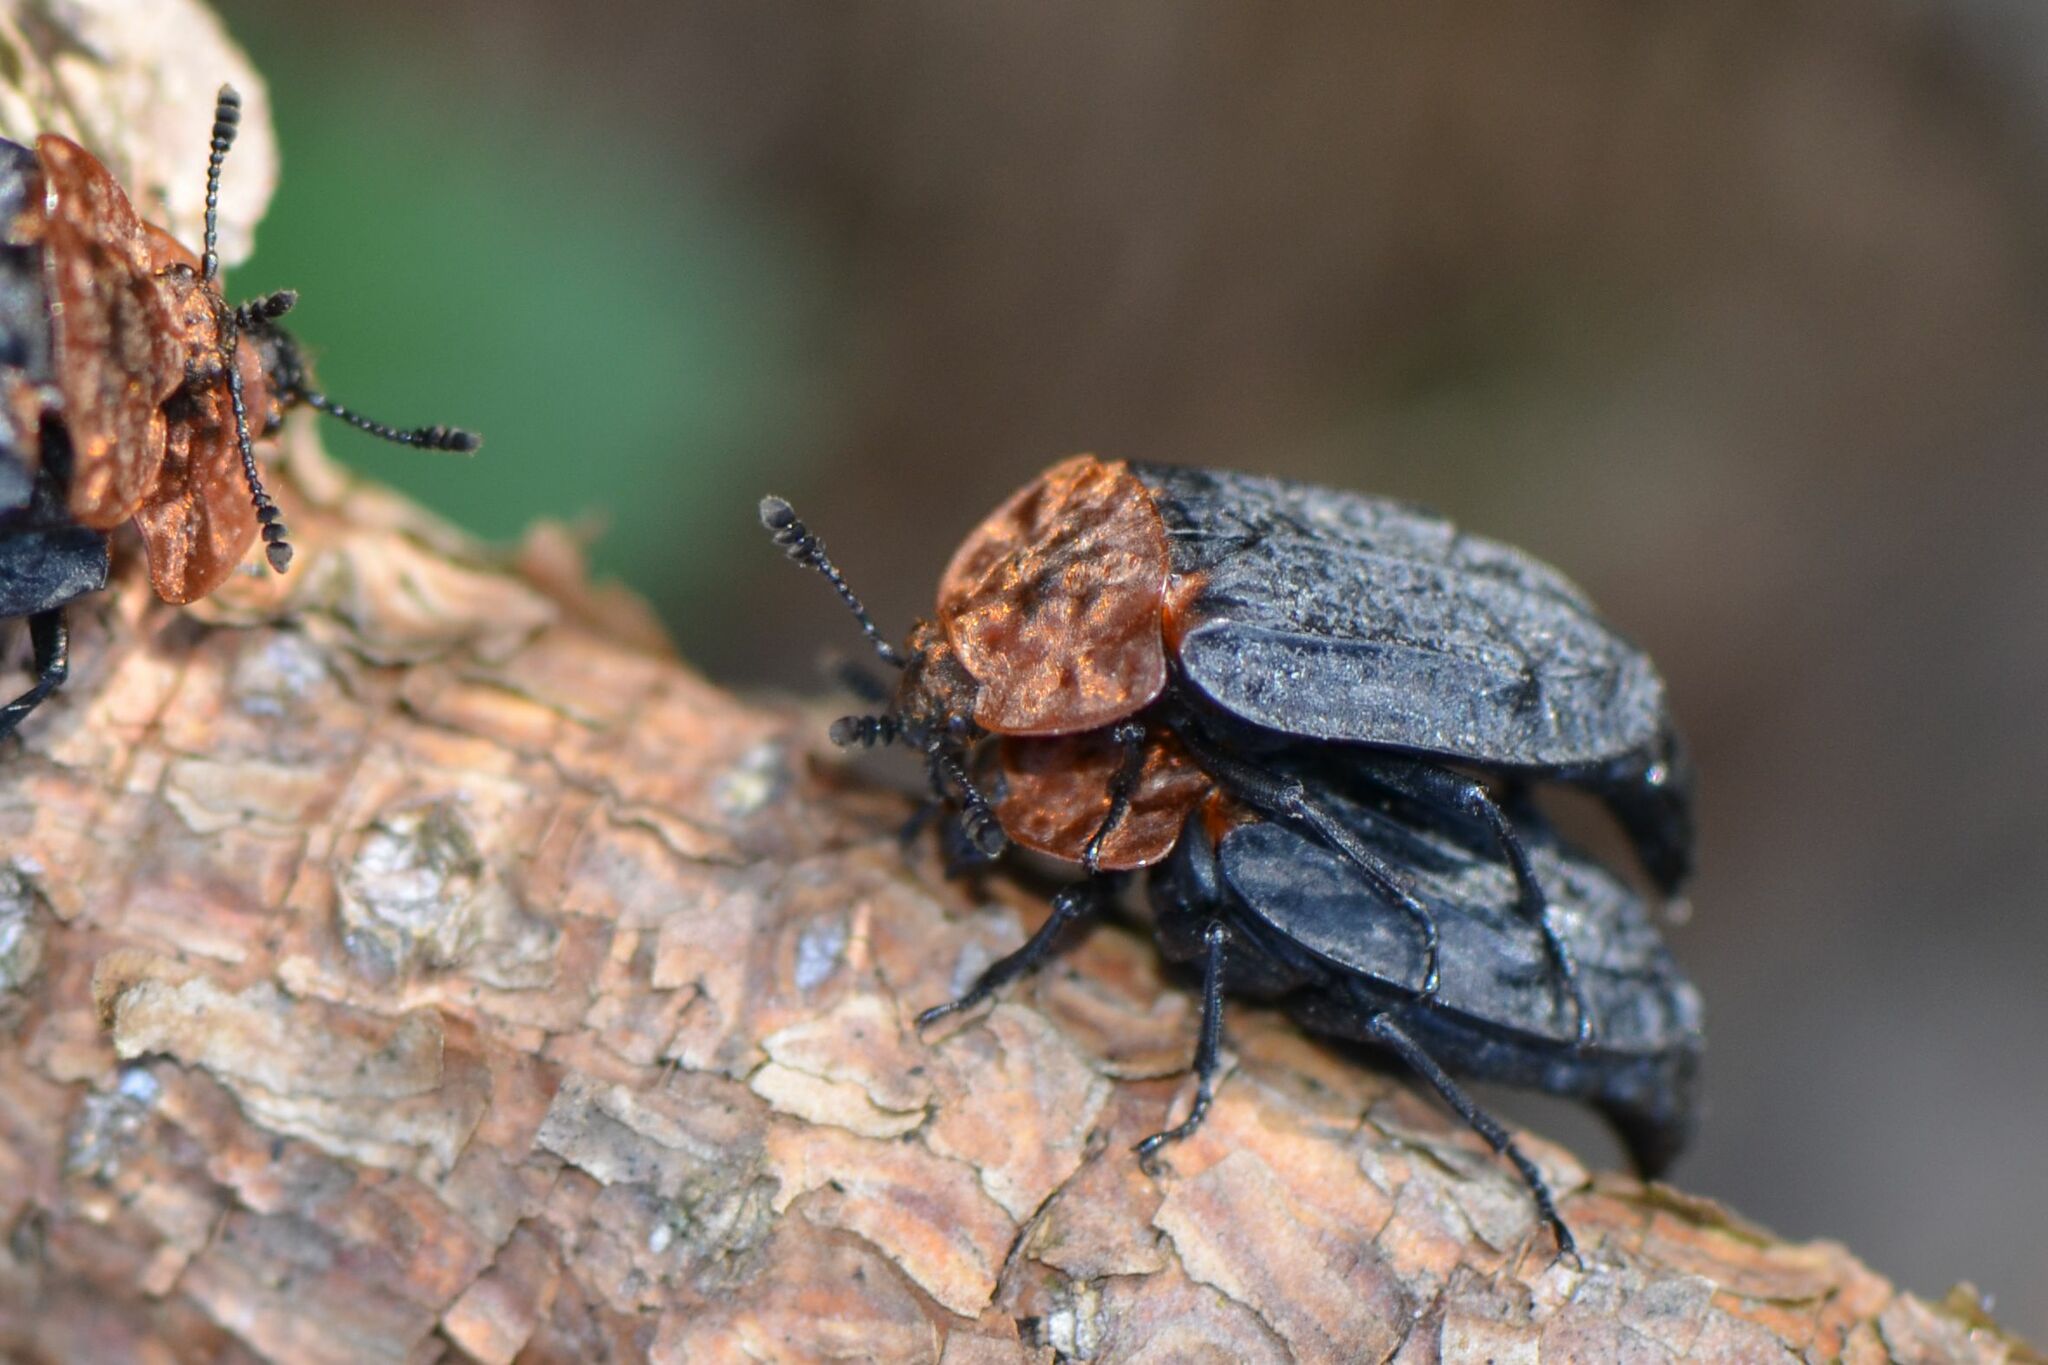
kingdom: Animalia
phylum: Arthropoda
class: Insecta
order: Coleoptera
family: Staphylinidae
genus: Oiceoptoma
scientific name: Oiceoptoma thoracicum
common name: Red-breasted carrion beetle
